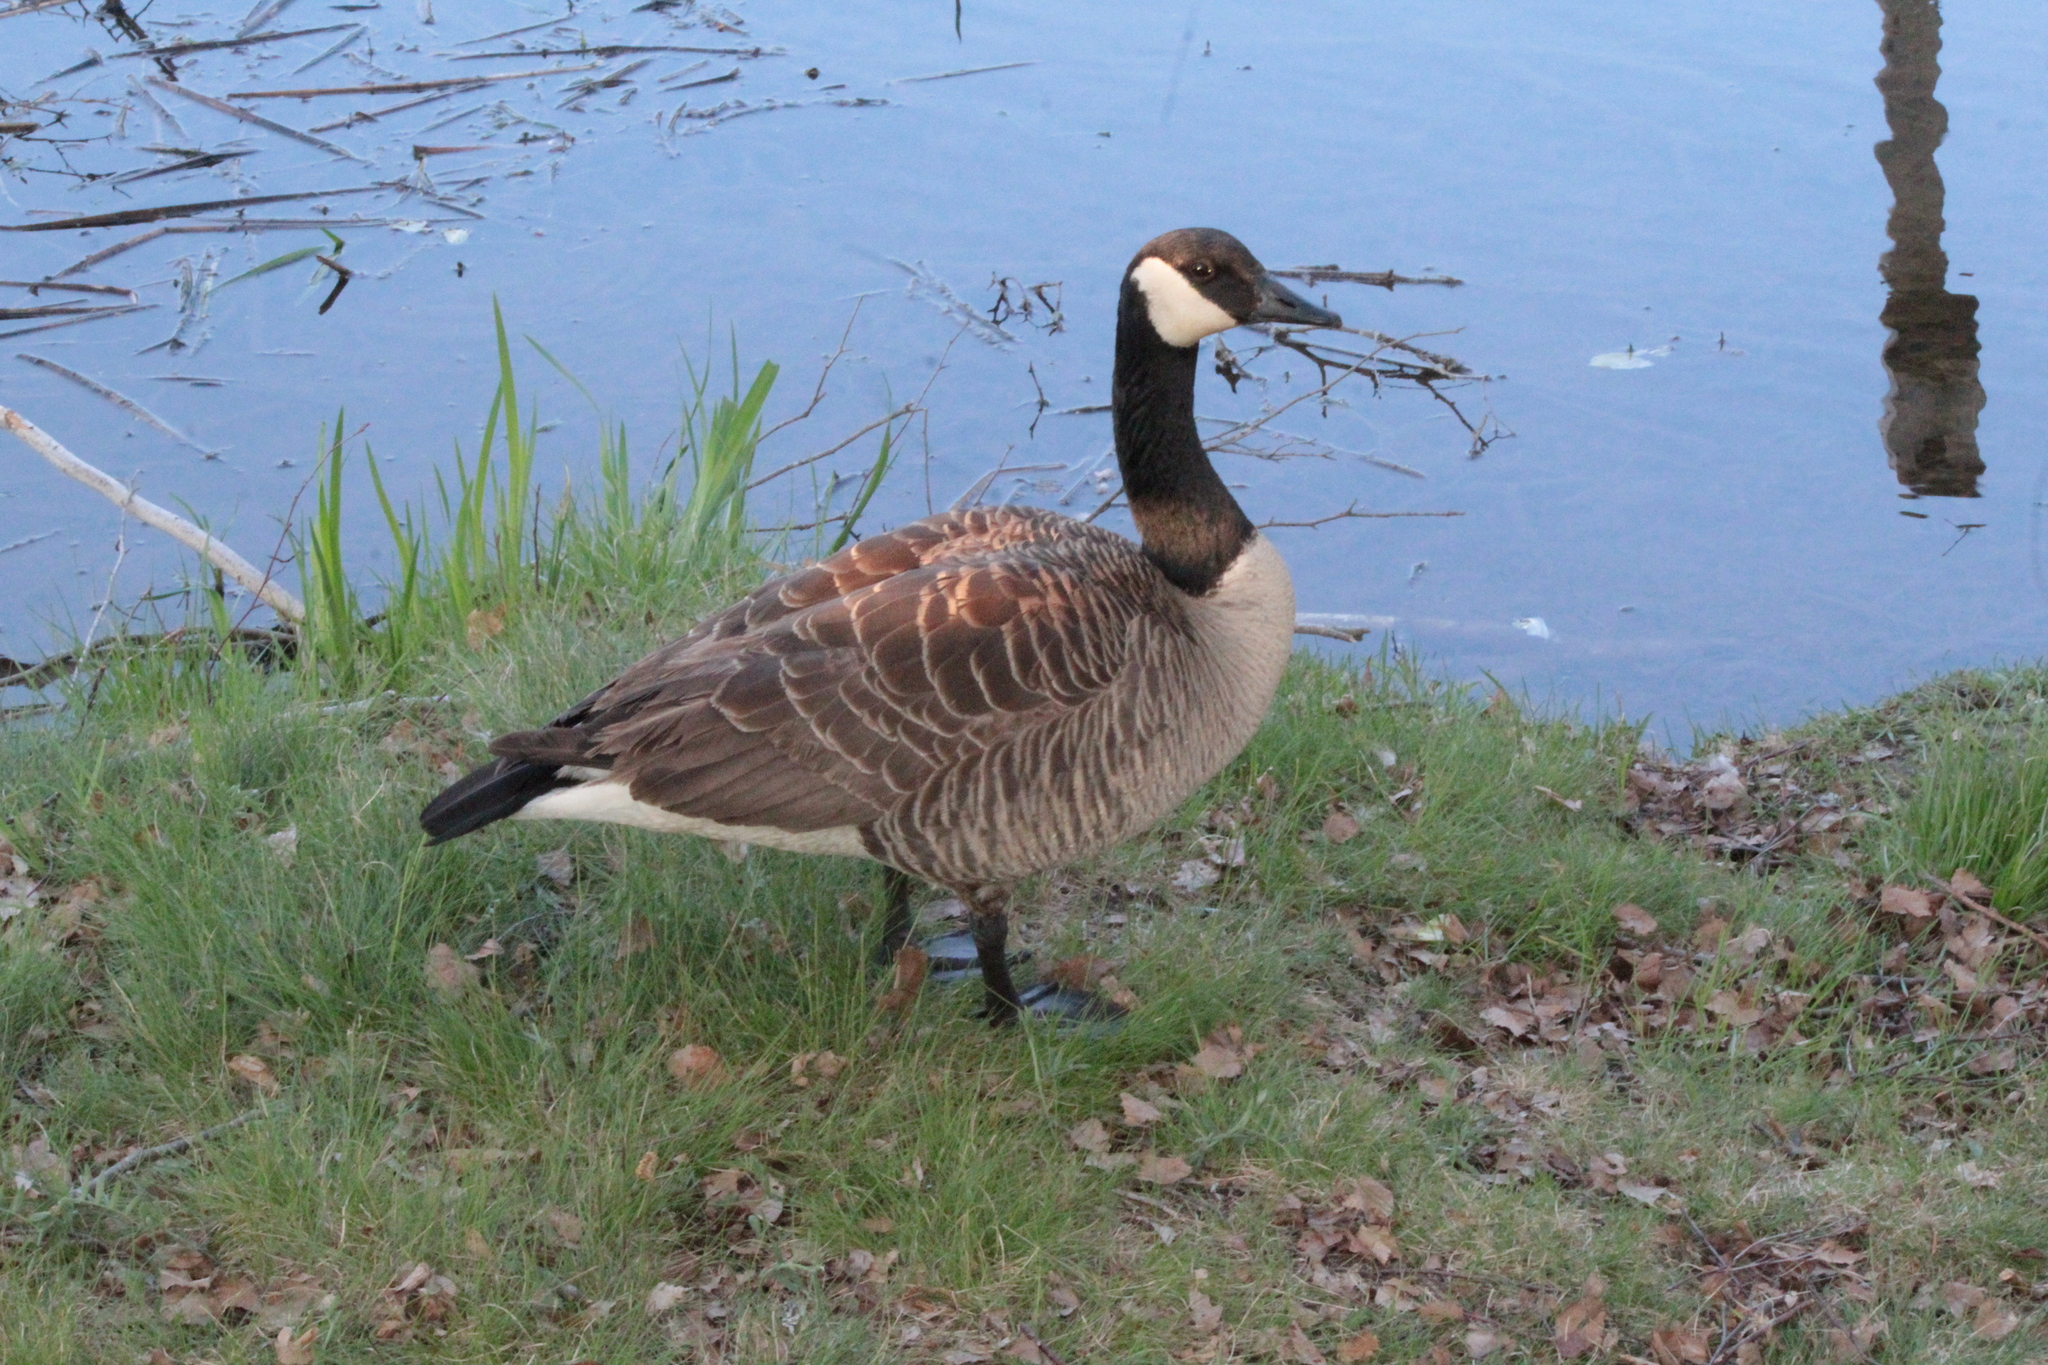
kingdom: Animalia
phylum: Chordata
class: Aves
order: Anseriformes
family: Anatidae
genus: Branta
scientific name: Branta canadensis
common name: Canada goose
